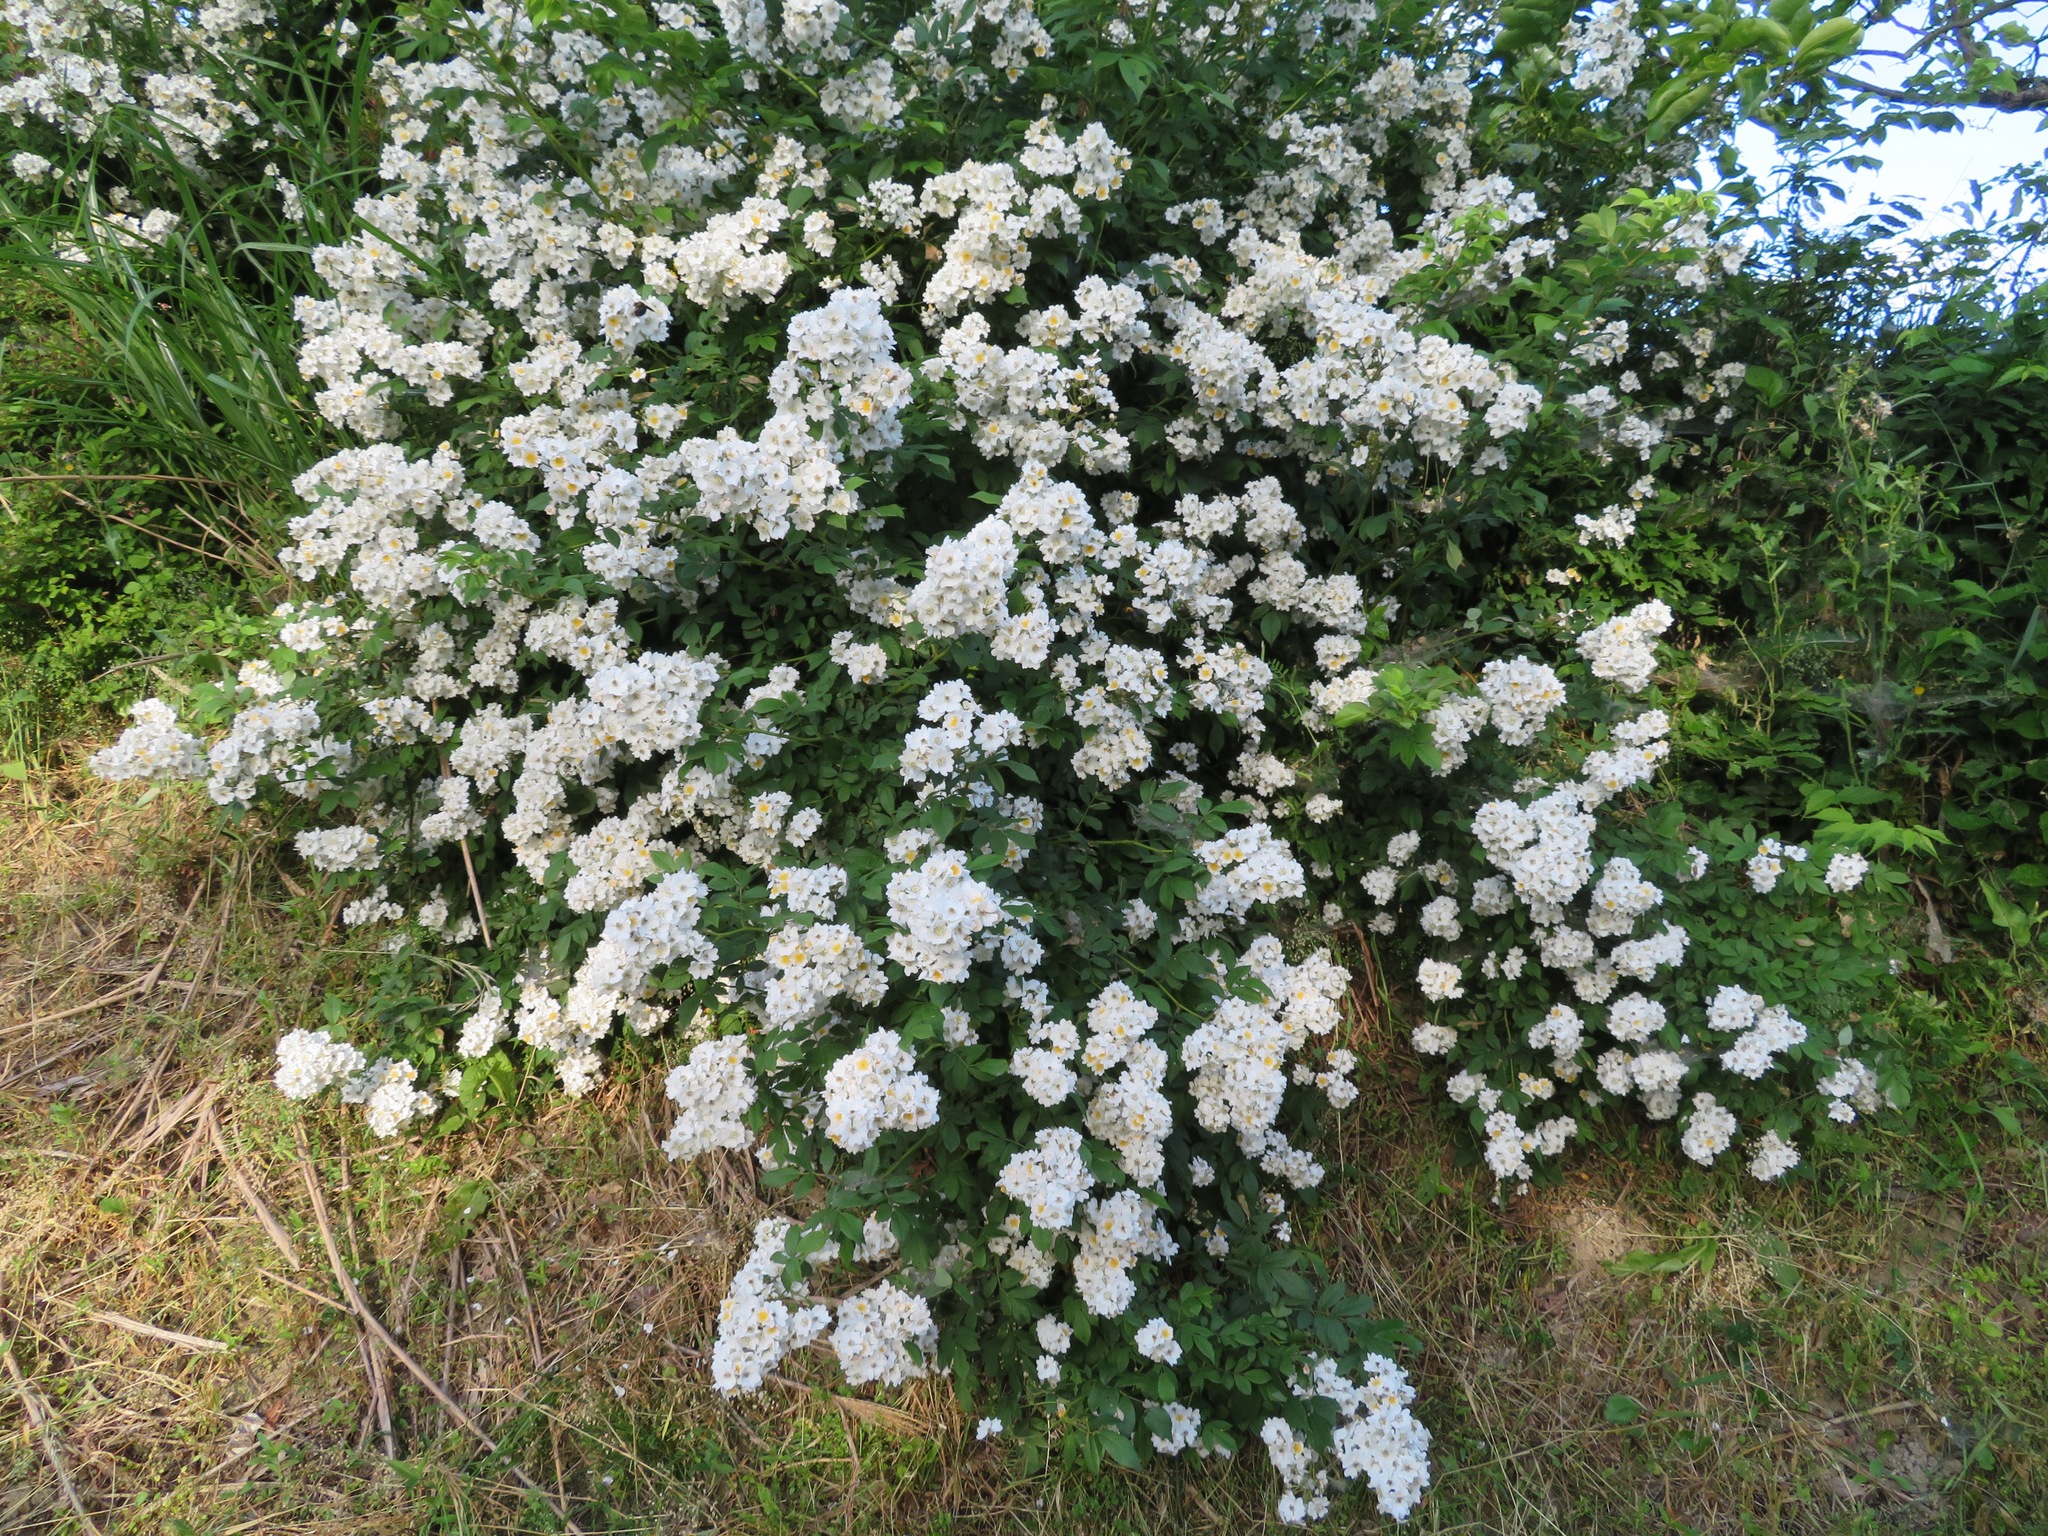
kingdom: Plantae
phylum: Tracheophyta
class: Magnoliopsida
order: Rosales
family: Rosaceae
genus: Rosa
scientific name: Rosa multiflora
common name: Multiflora rose
